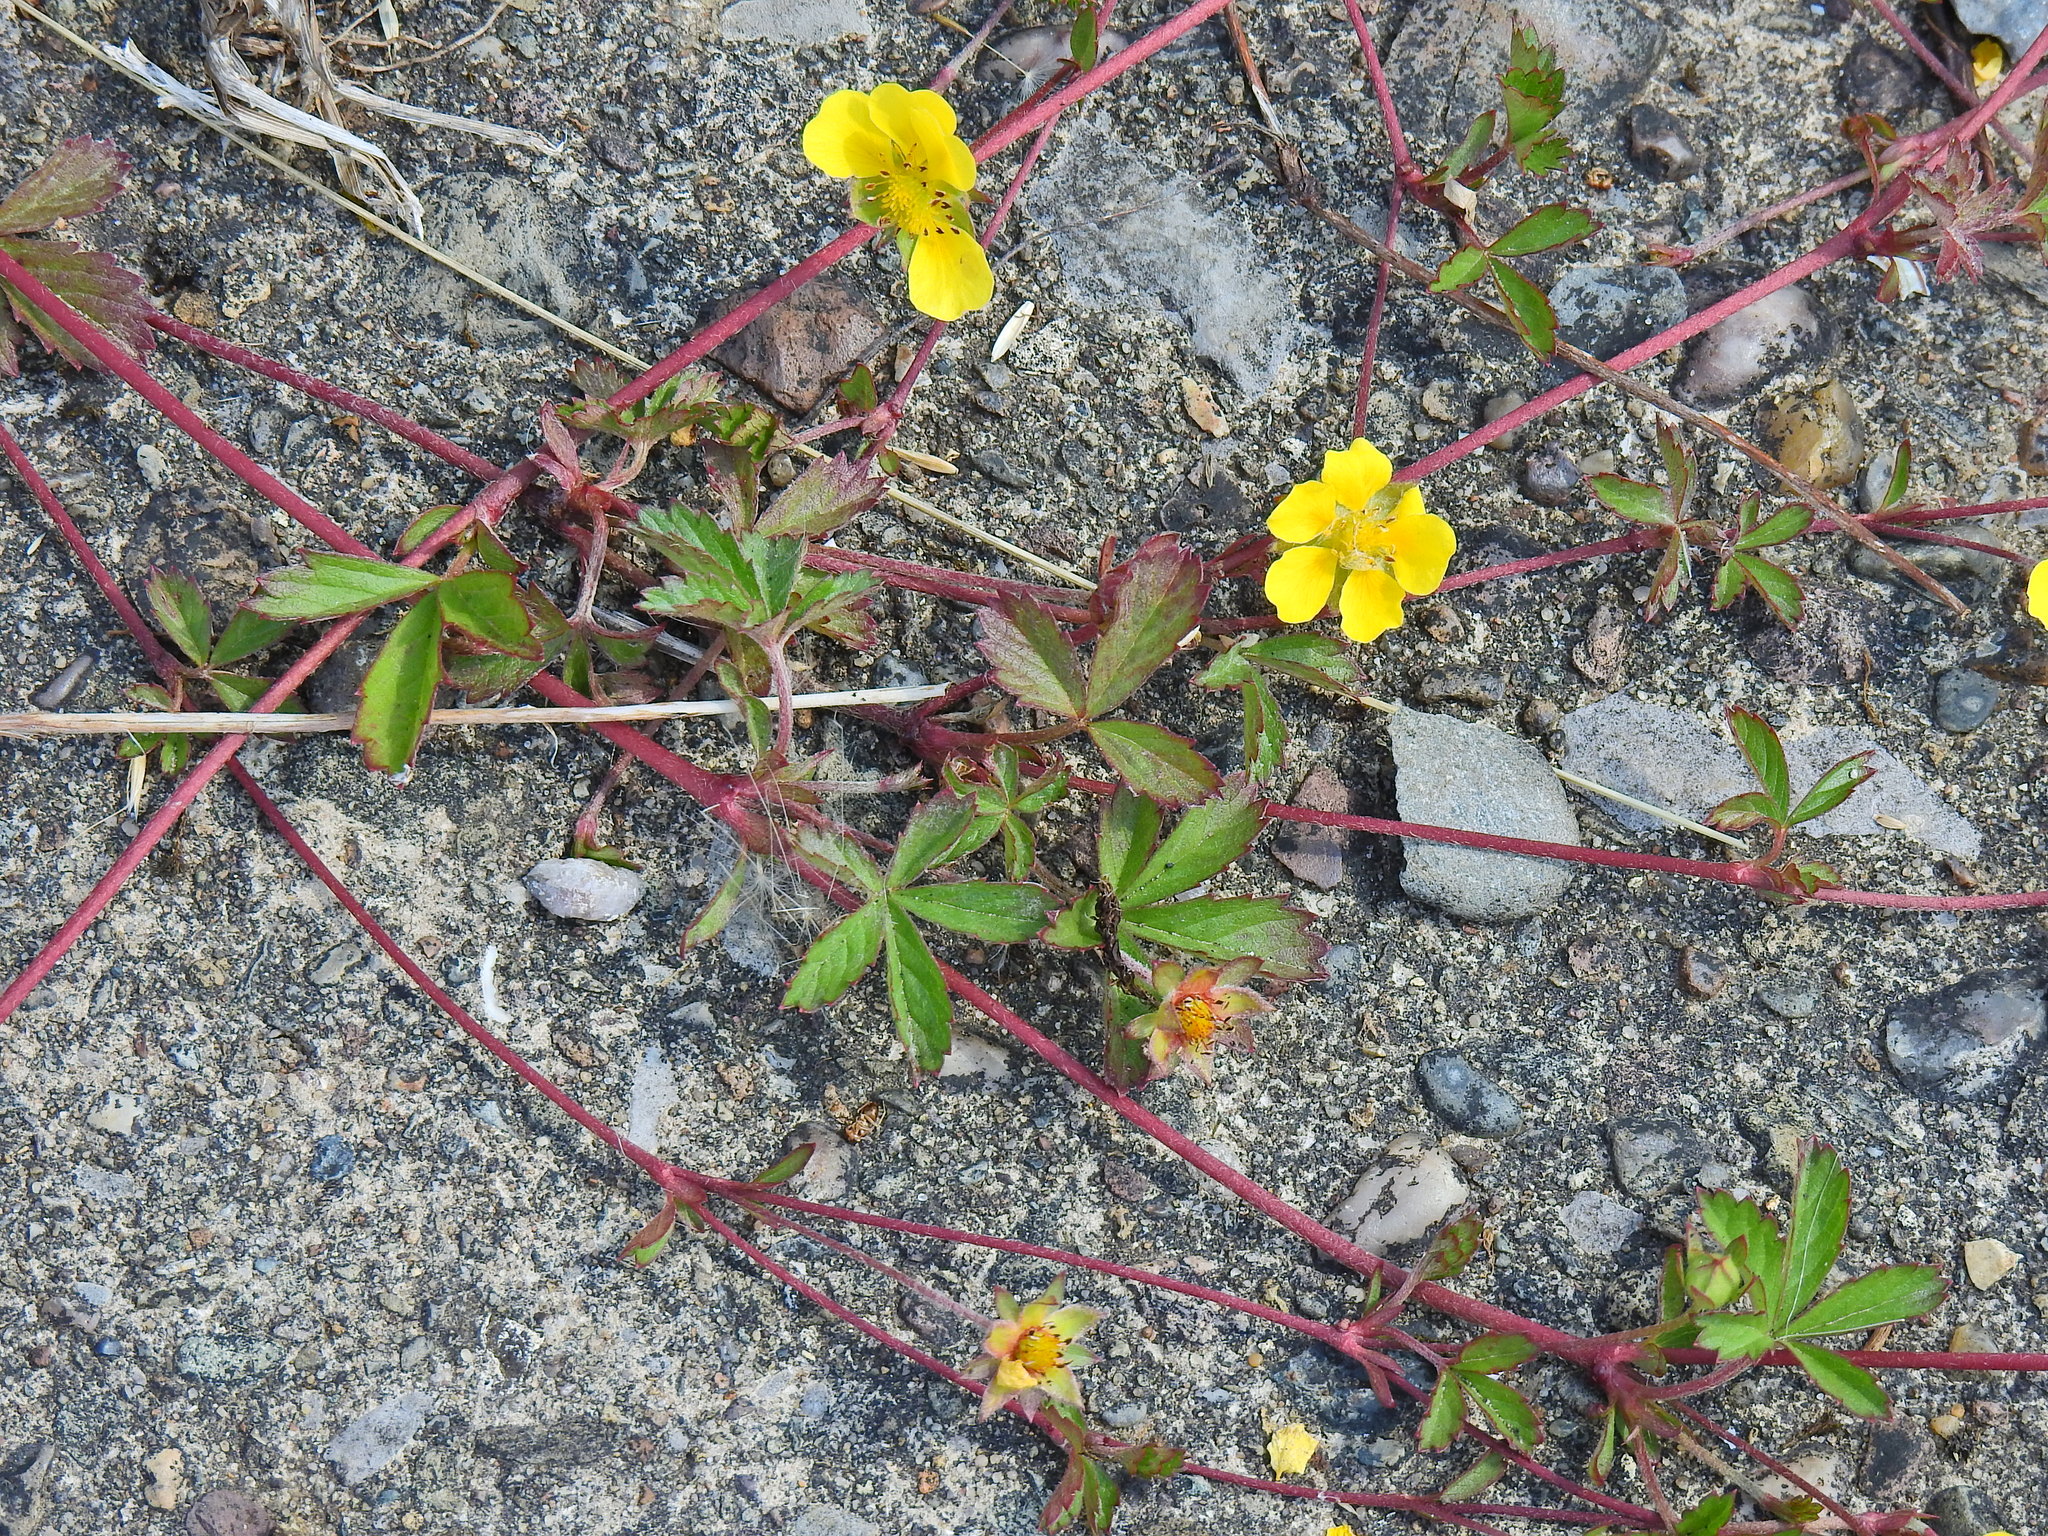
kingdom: Plantae
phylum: Tracheophyta
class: Magnoliopsida
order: Rosales
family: Rosaceae
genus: Potentilla
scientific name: Potentilla reptans
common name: Creeping cinquefoil
